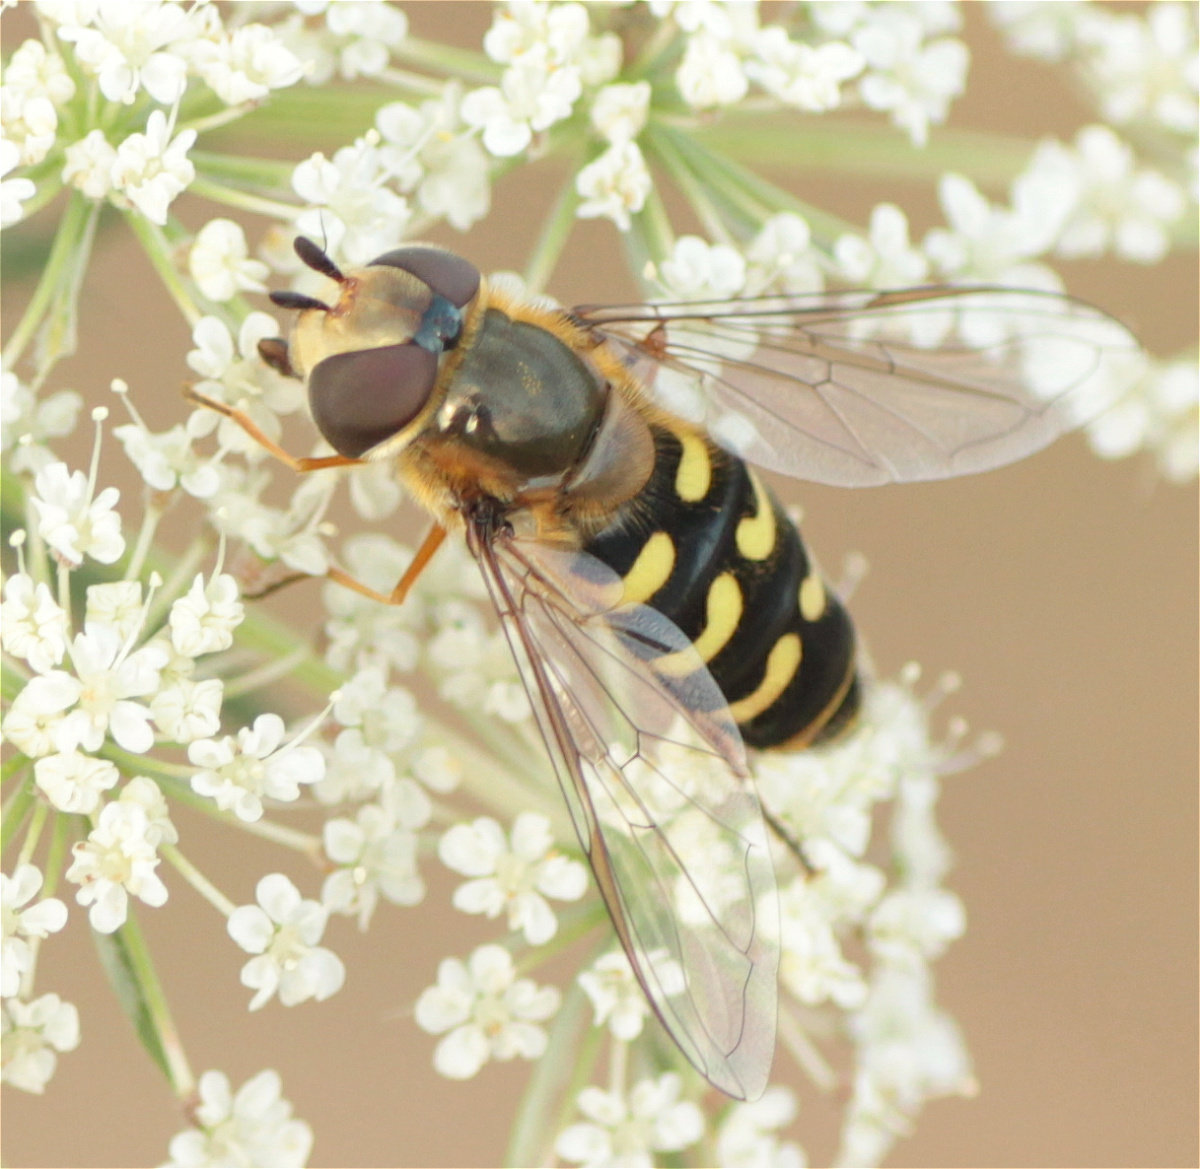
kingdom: Animalia
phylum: Arthropoda
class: Insecta
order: Diptera
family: Syrphidae
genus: Scaeva
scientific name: Scaeva selenitica
